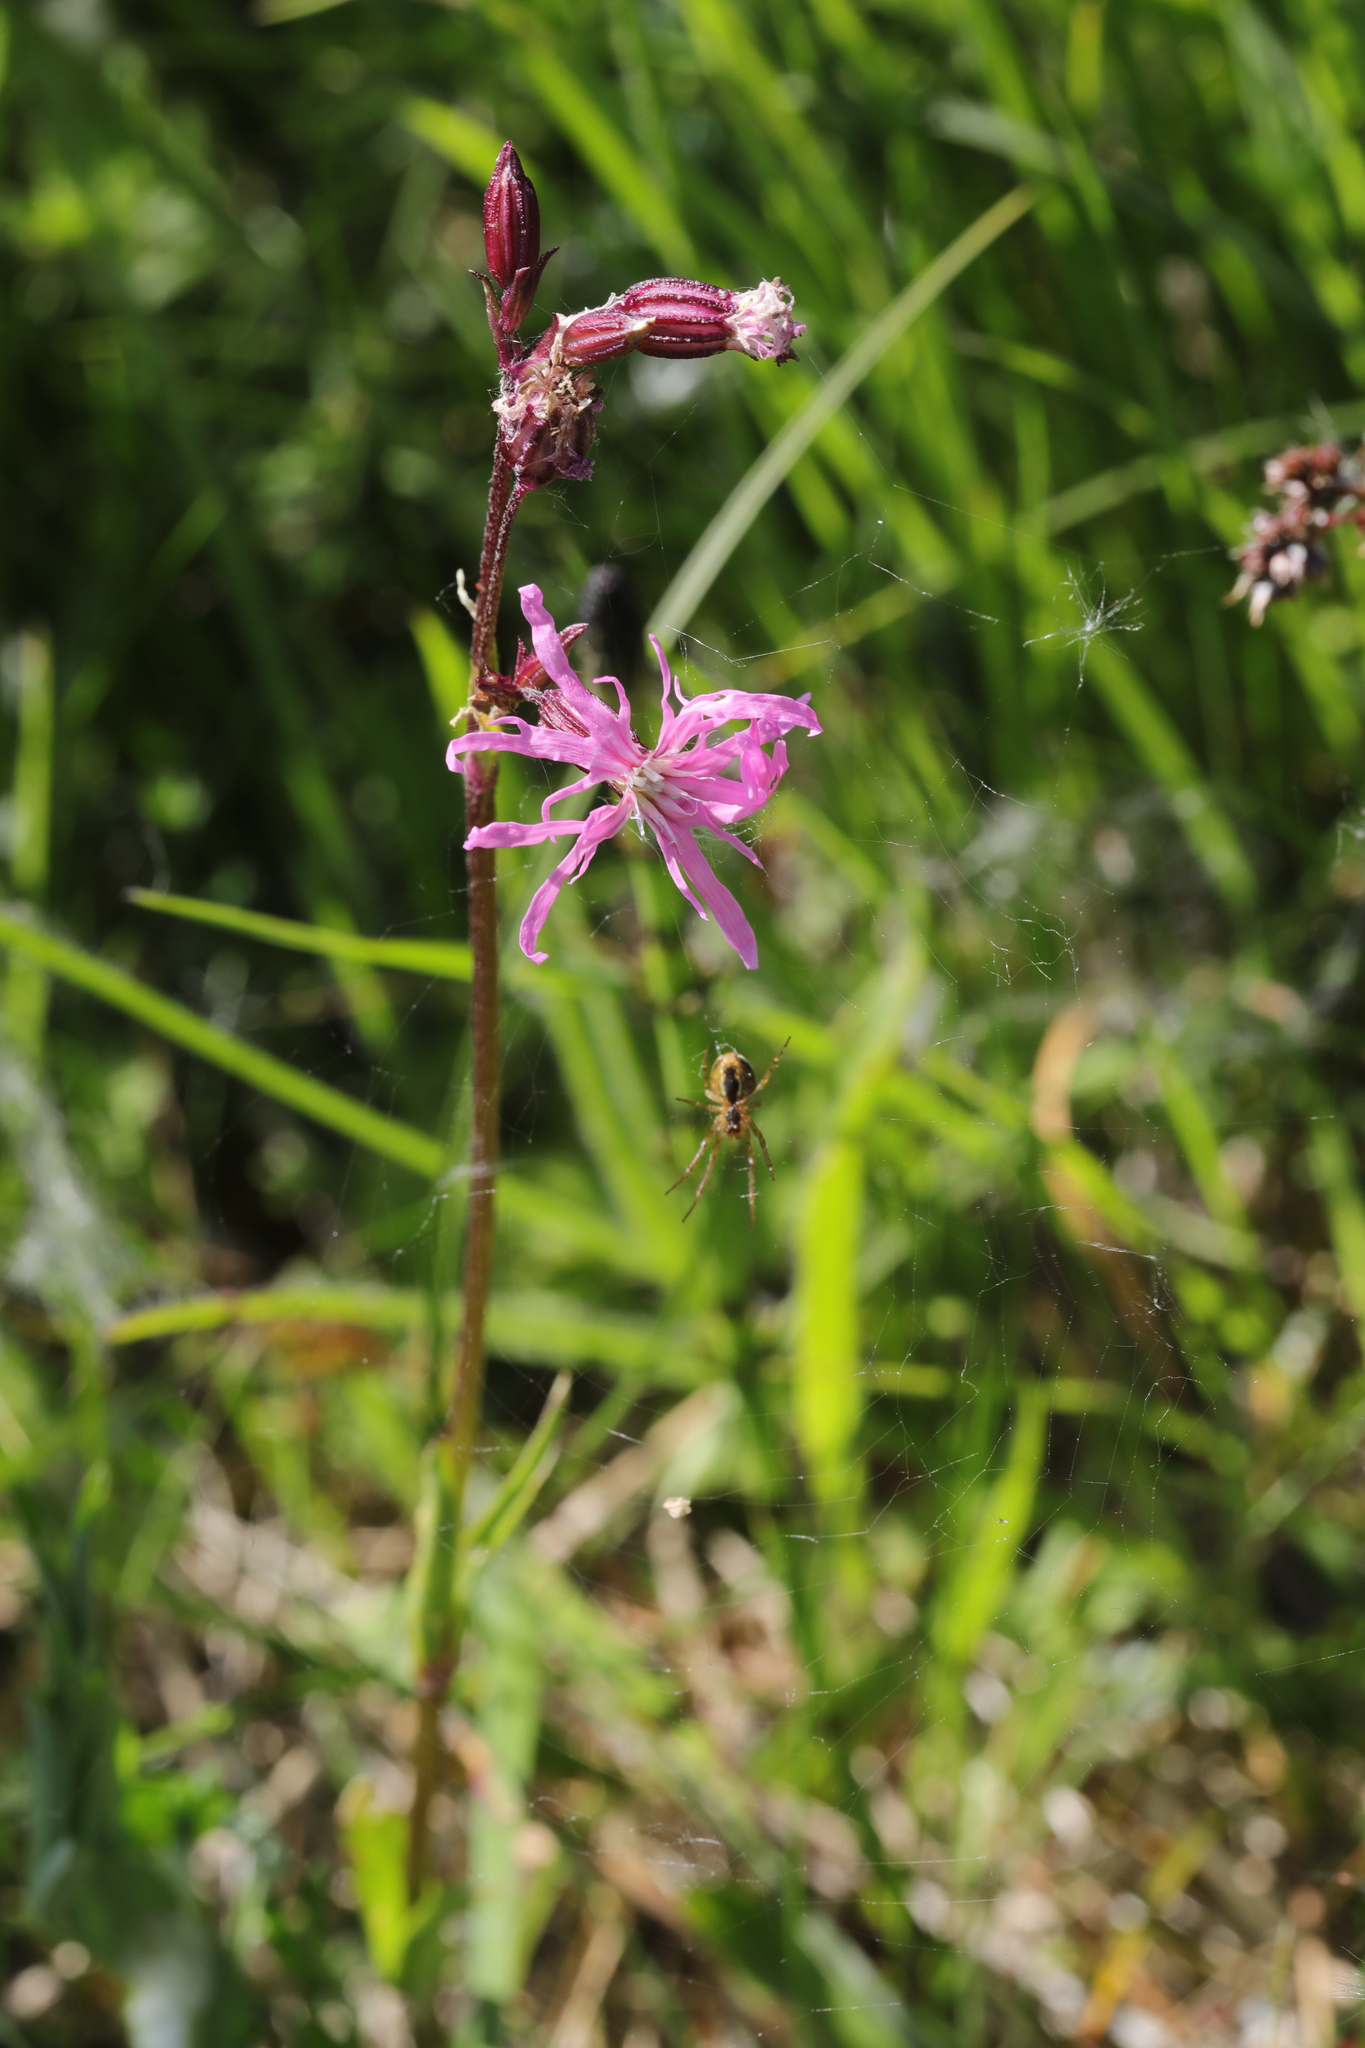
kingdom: Plantae
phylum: Tracheophyta
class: Magnoliopsida
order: Caryophyllales
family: Caryophyllaceae
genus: Silene
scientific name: Silene flos-cuculi
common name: Ragged-robin
